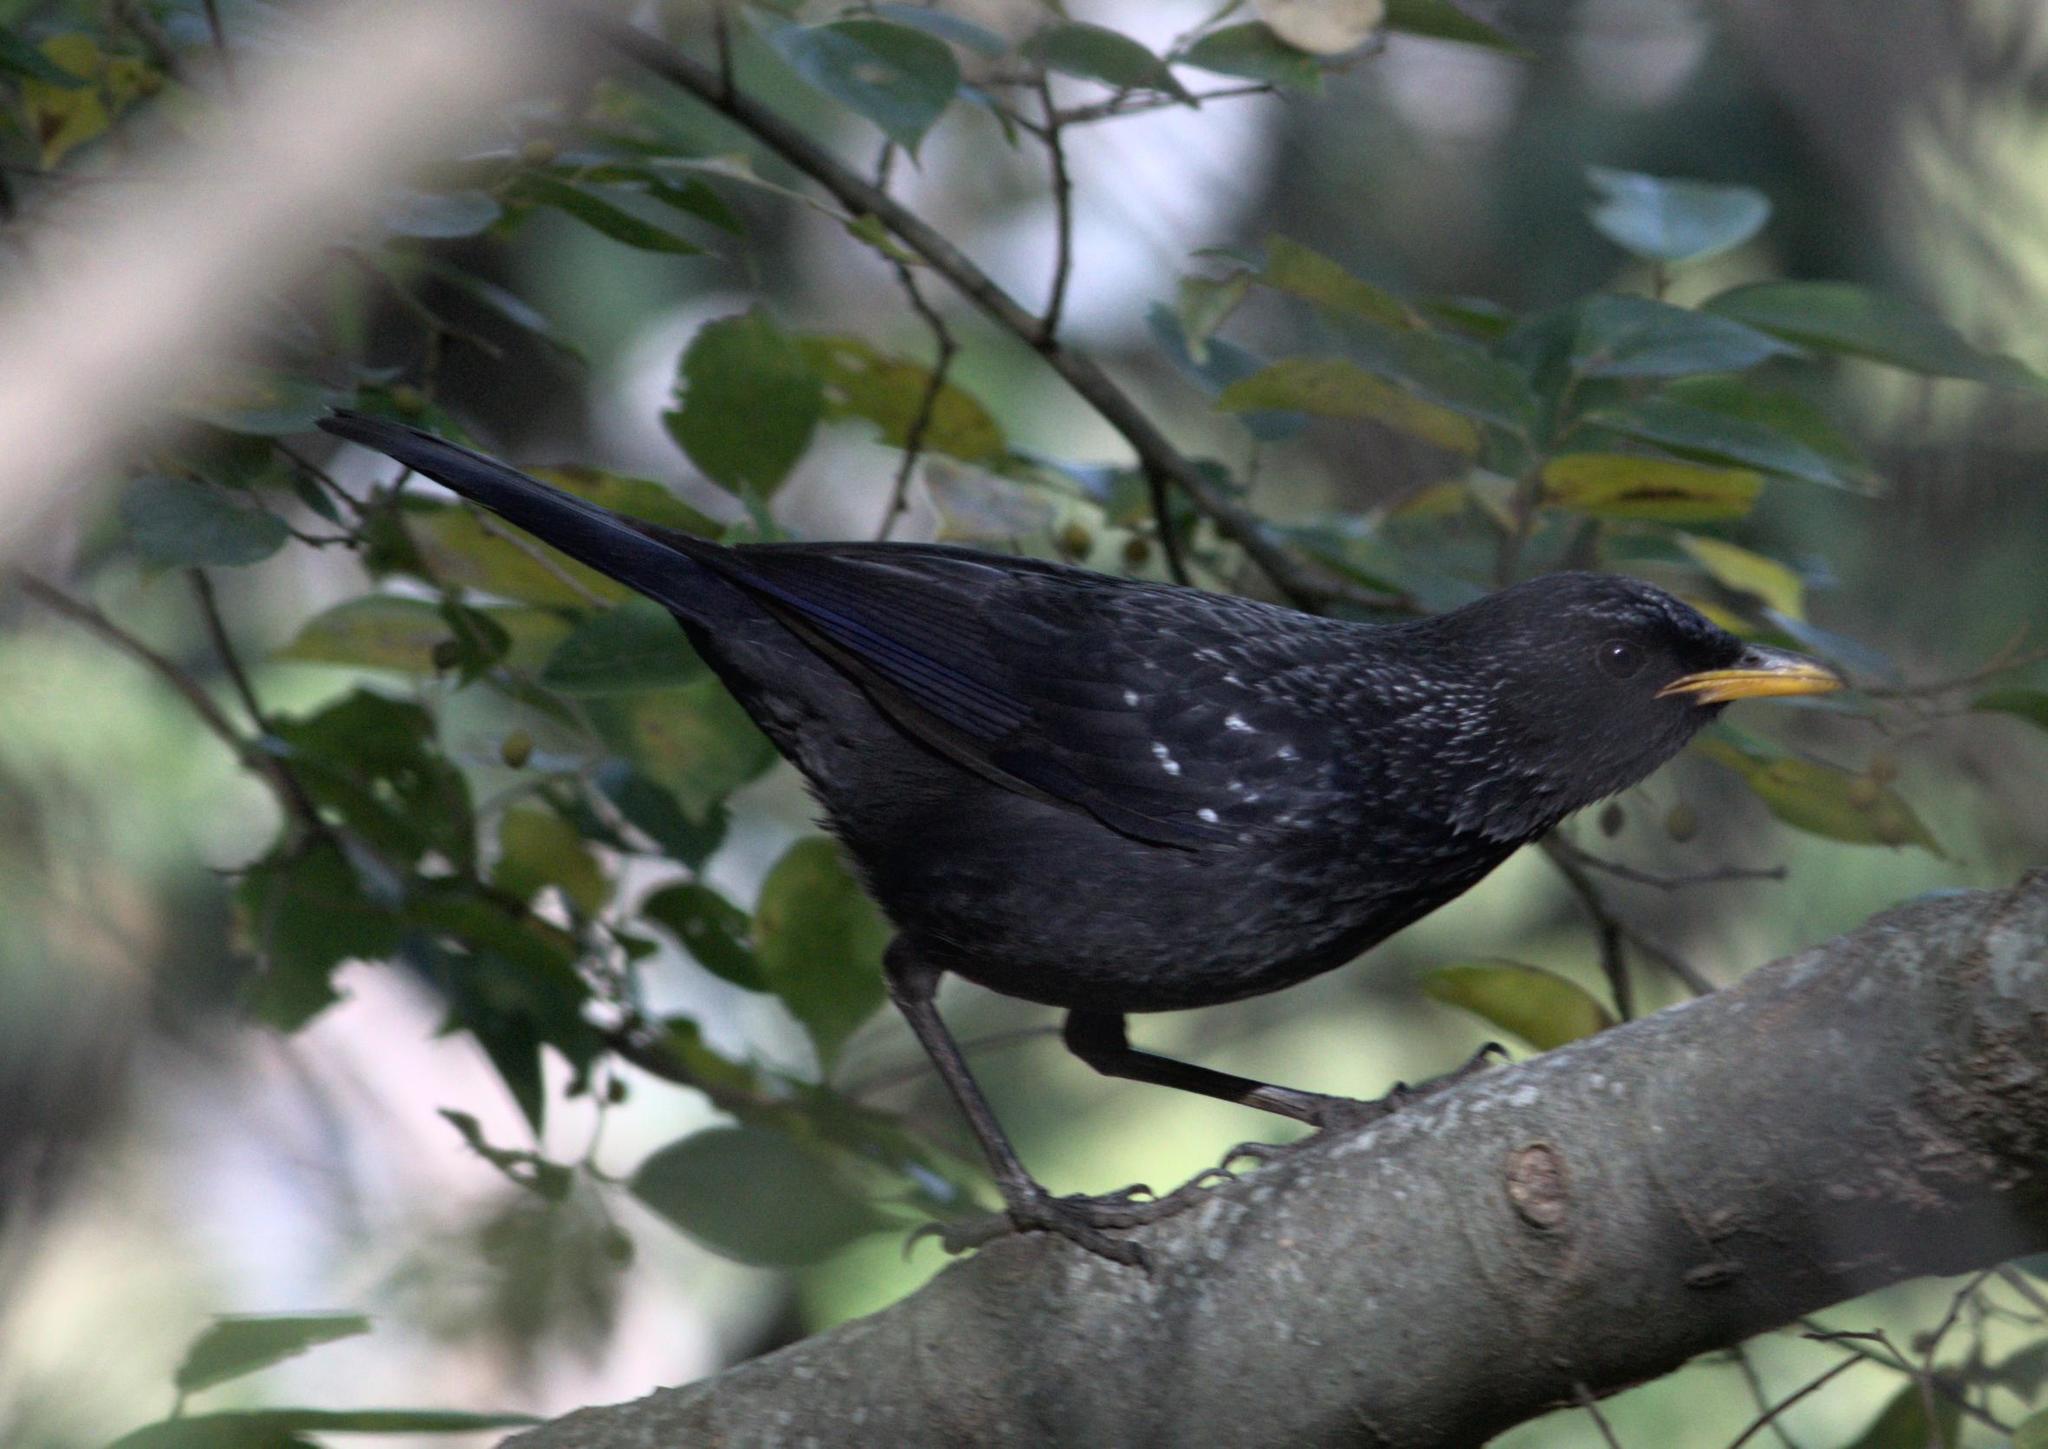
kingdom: Animalia
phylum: Chordata
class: Aves
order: Passeriformes
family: Muscicapidae
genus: Myophonus
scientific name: Myophonus caeruleus
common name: Blue whistling-thrush
